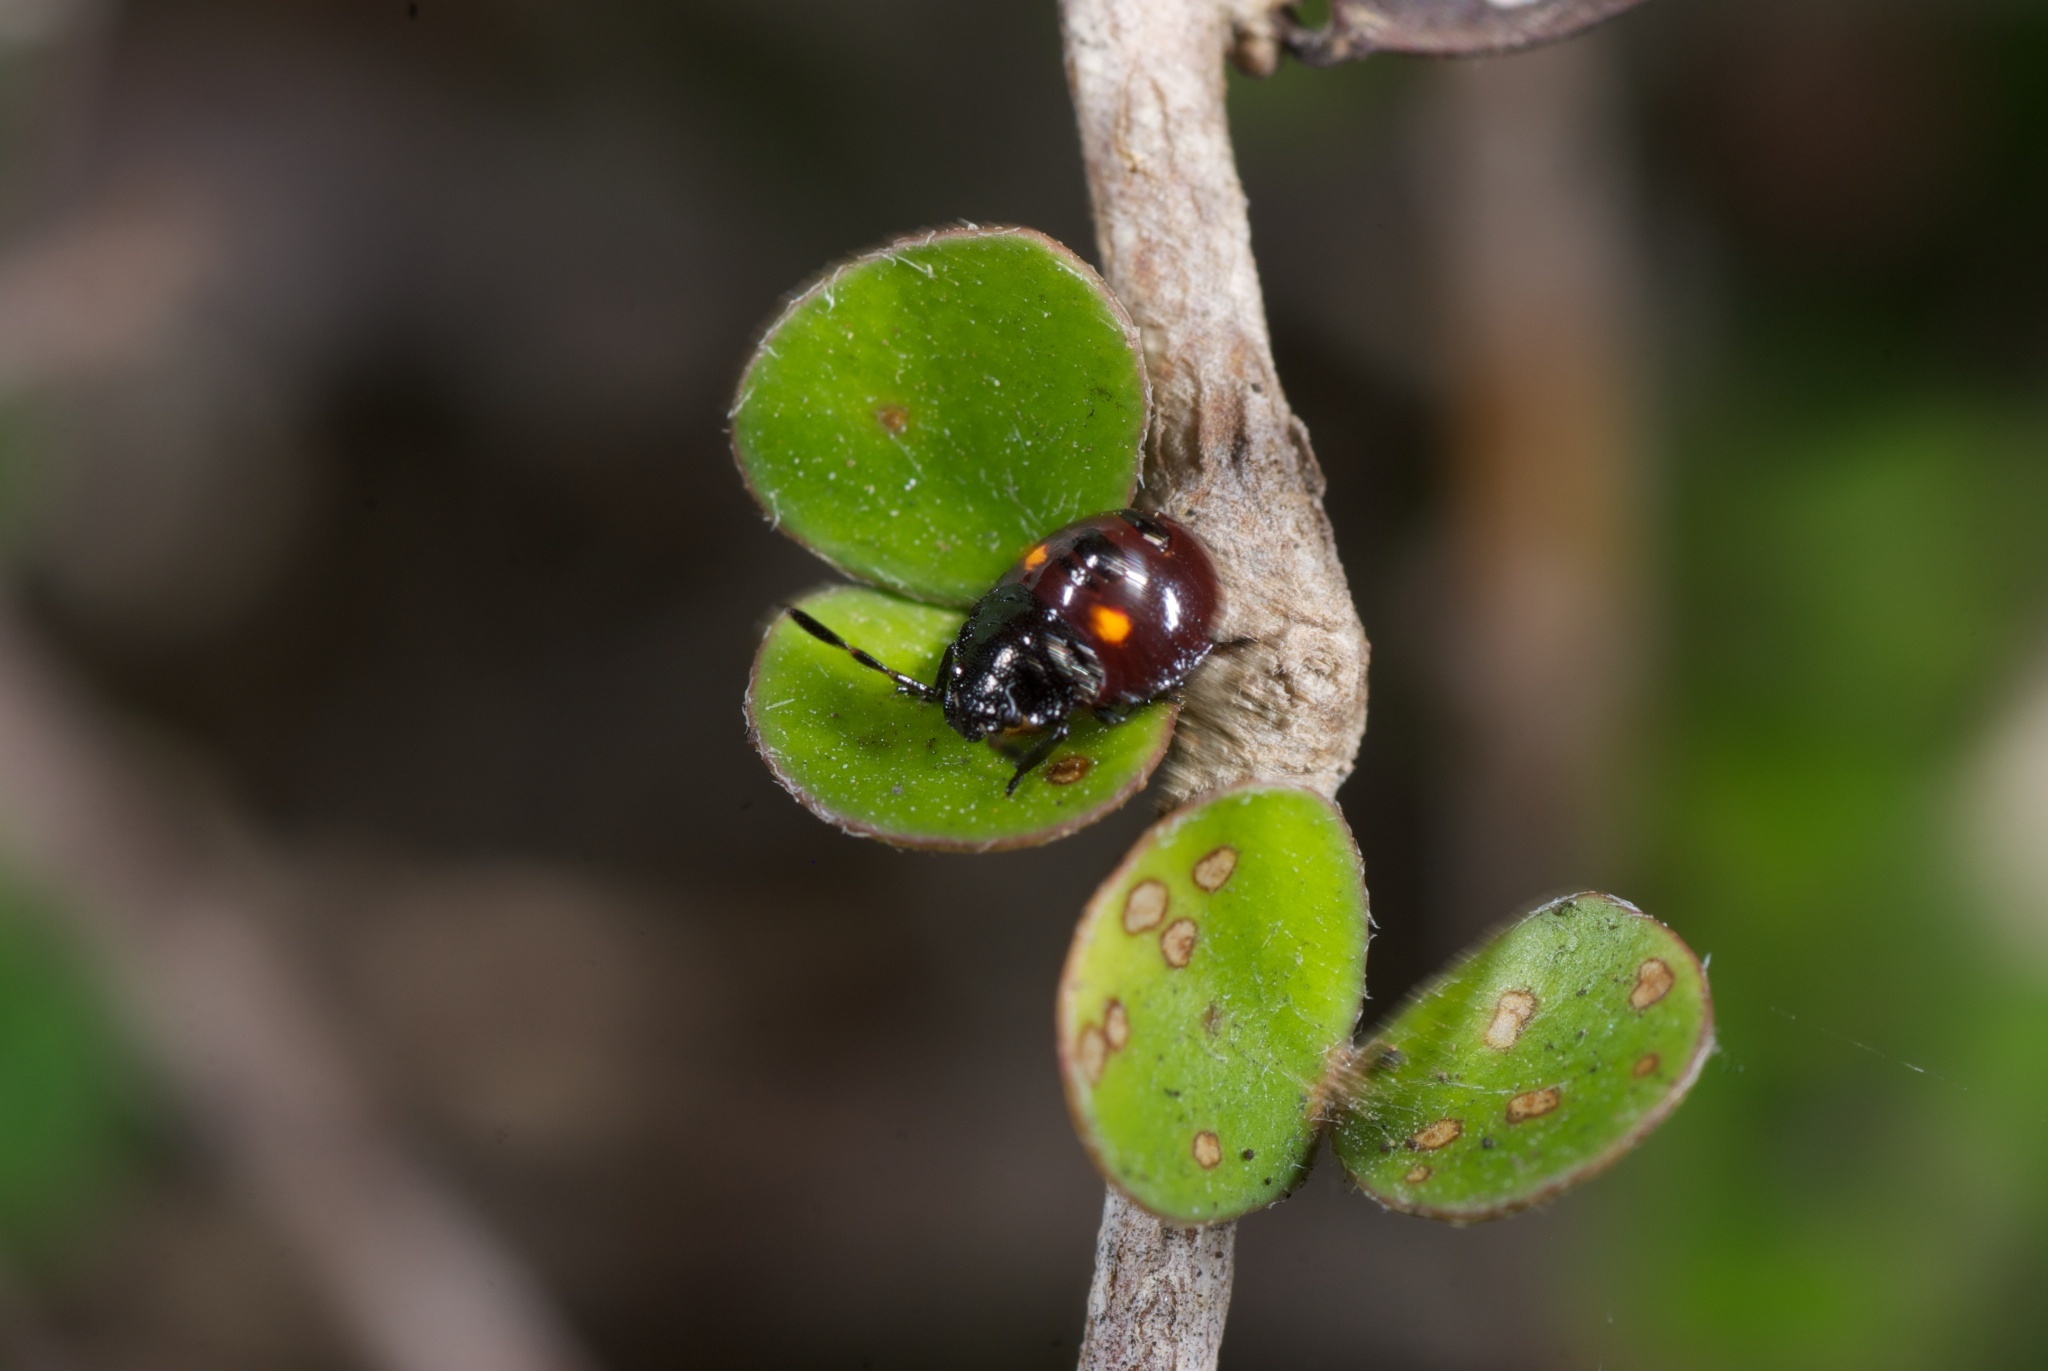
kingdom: Animalia
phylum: Arthropoda
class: Insecta
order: Hemiptera
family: Pentatomidae
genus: Monteithiella
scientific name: Monteithiella
